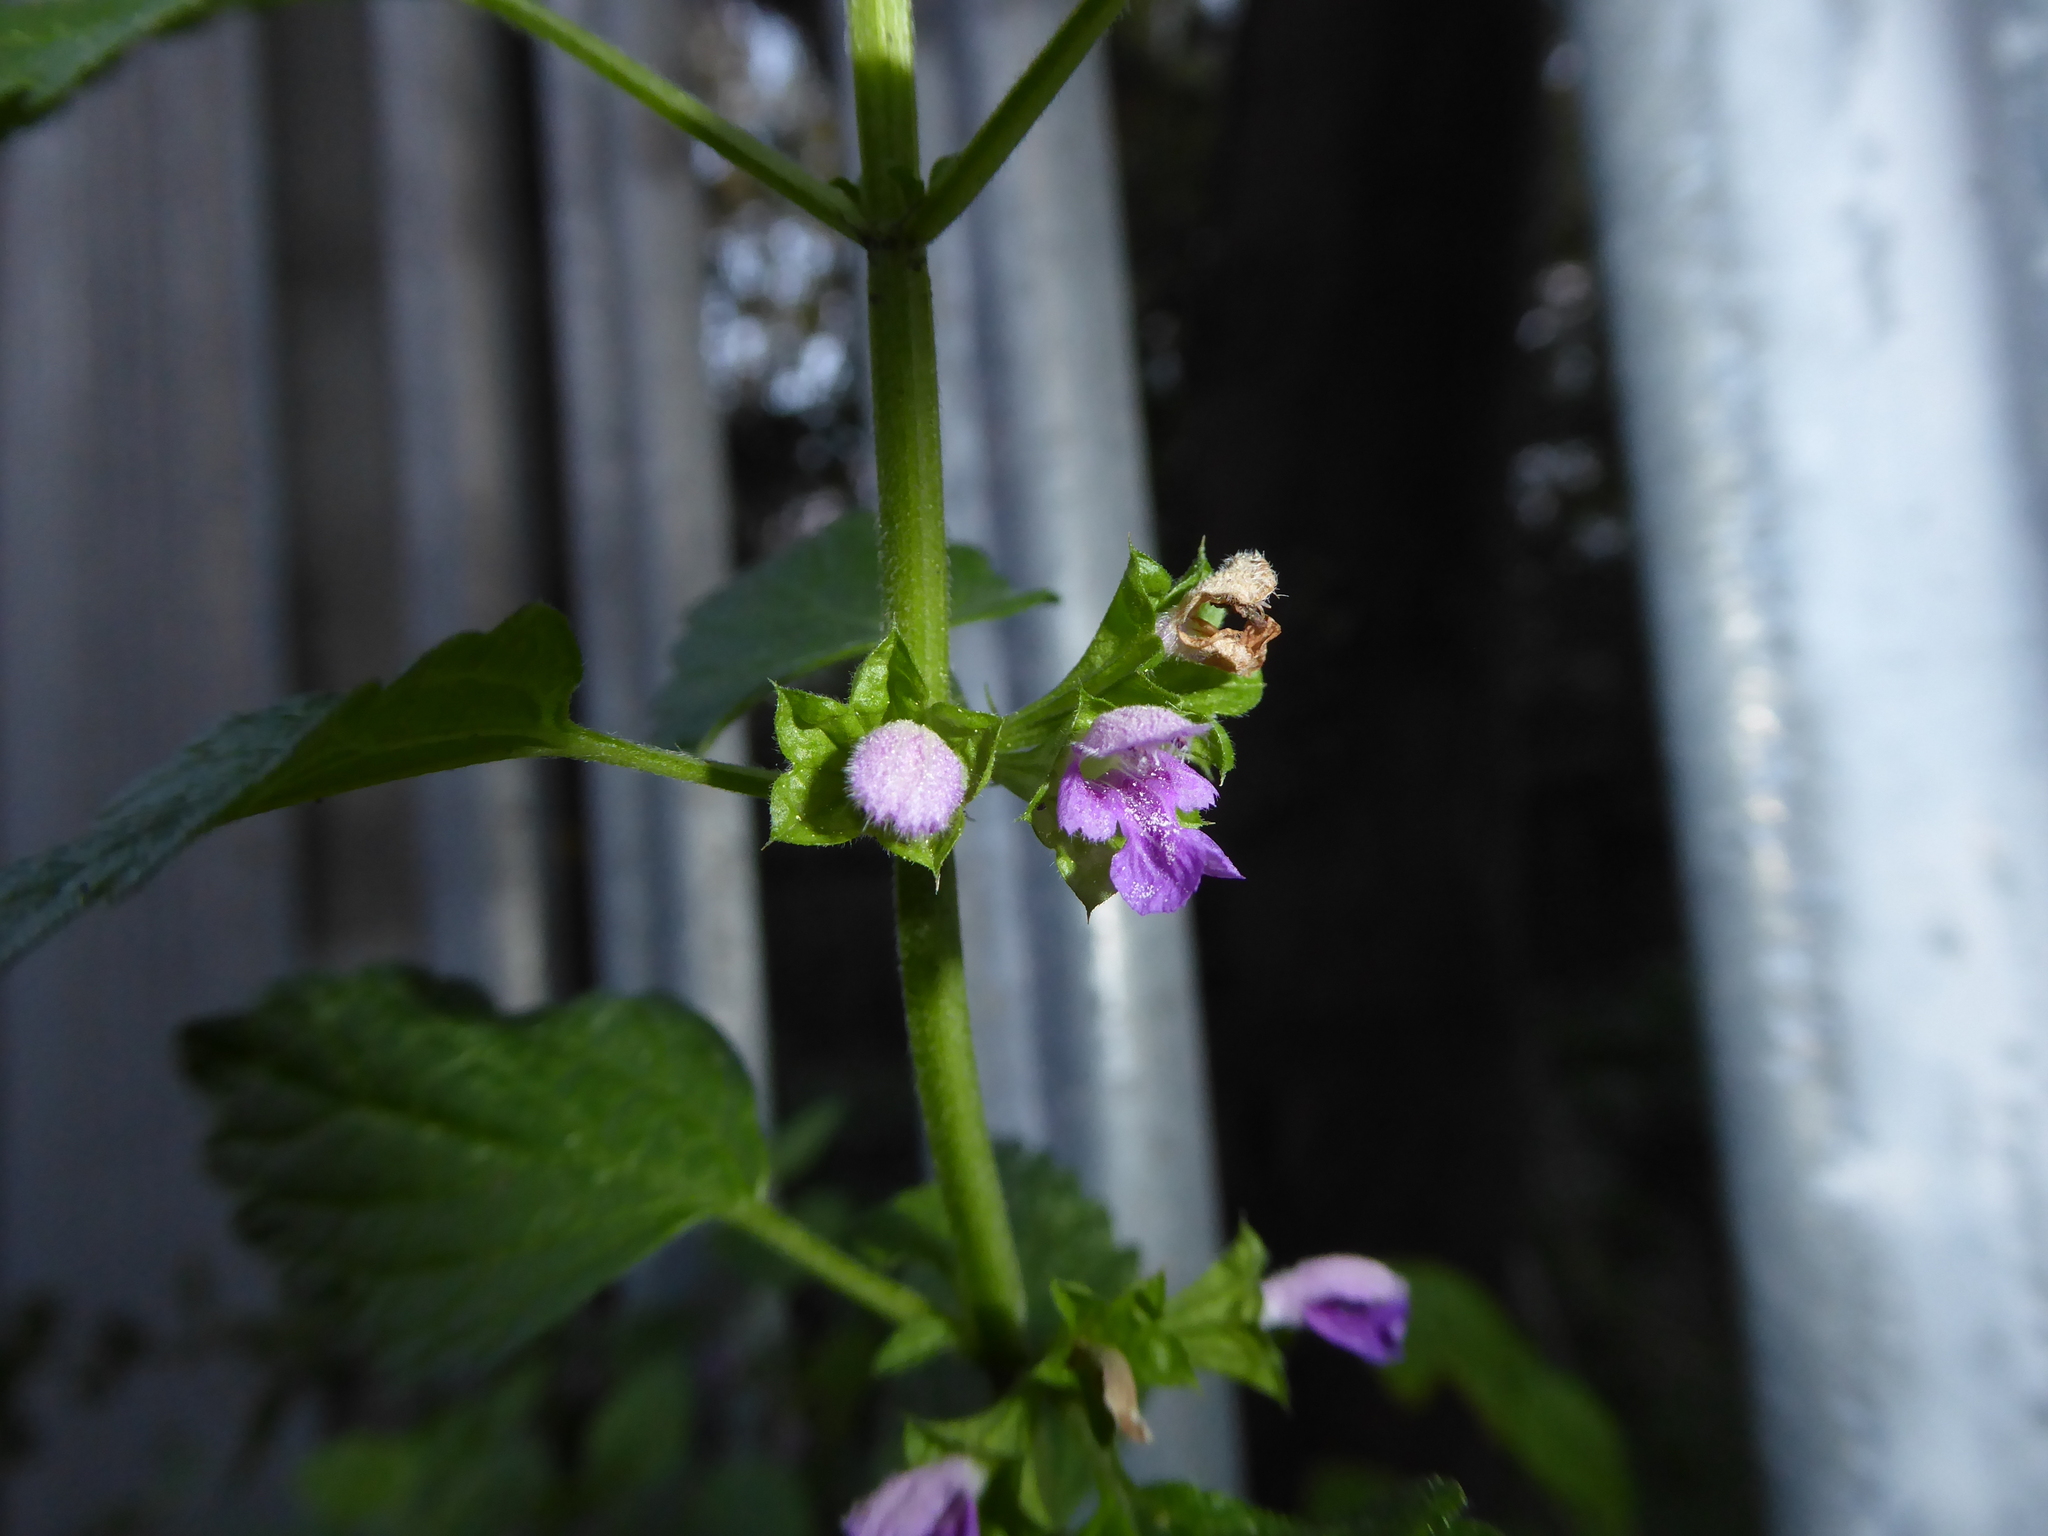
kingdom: Plantae
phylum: Tracheophyta
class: Magnoliopsida
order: Lamiales
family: Lamiaceae
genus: Ballota
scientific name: Ballota nigra
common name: Black horehound
